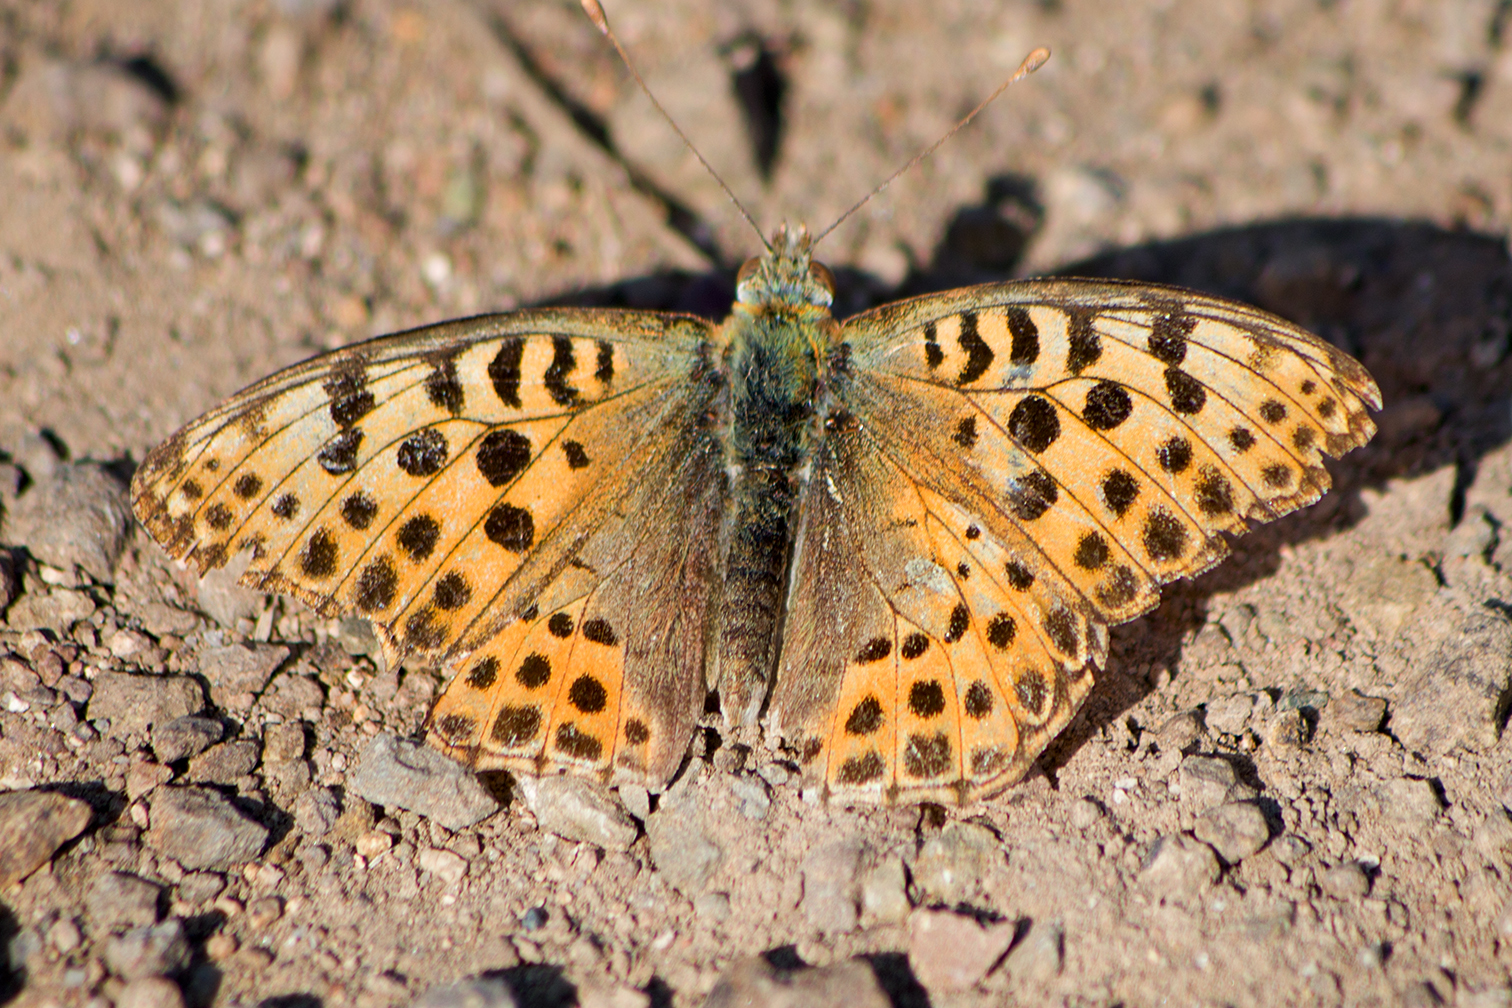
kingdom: Animalia
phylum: Arthropoda
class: Insecta
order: Lepidoptera
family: Nymphalidae
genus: Issoria
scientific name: Issoria lathonia
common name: Queen of spain fritillary
